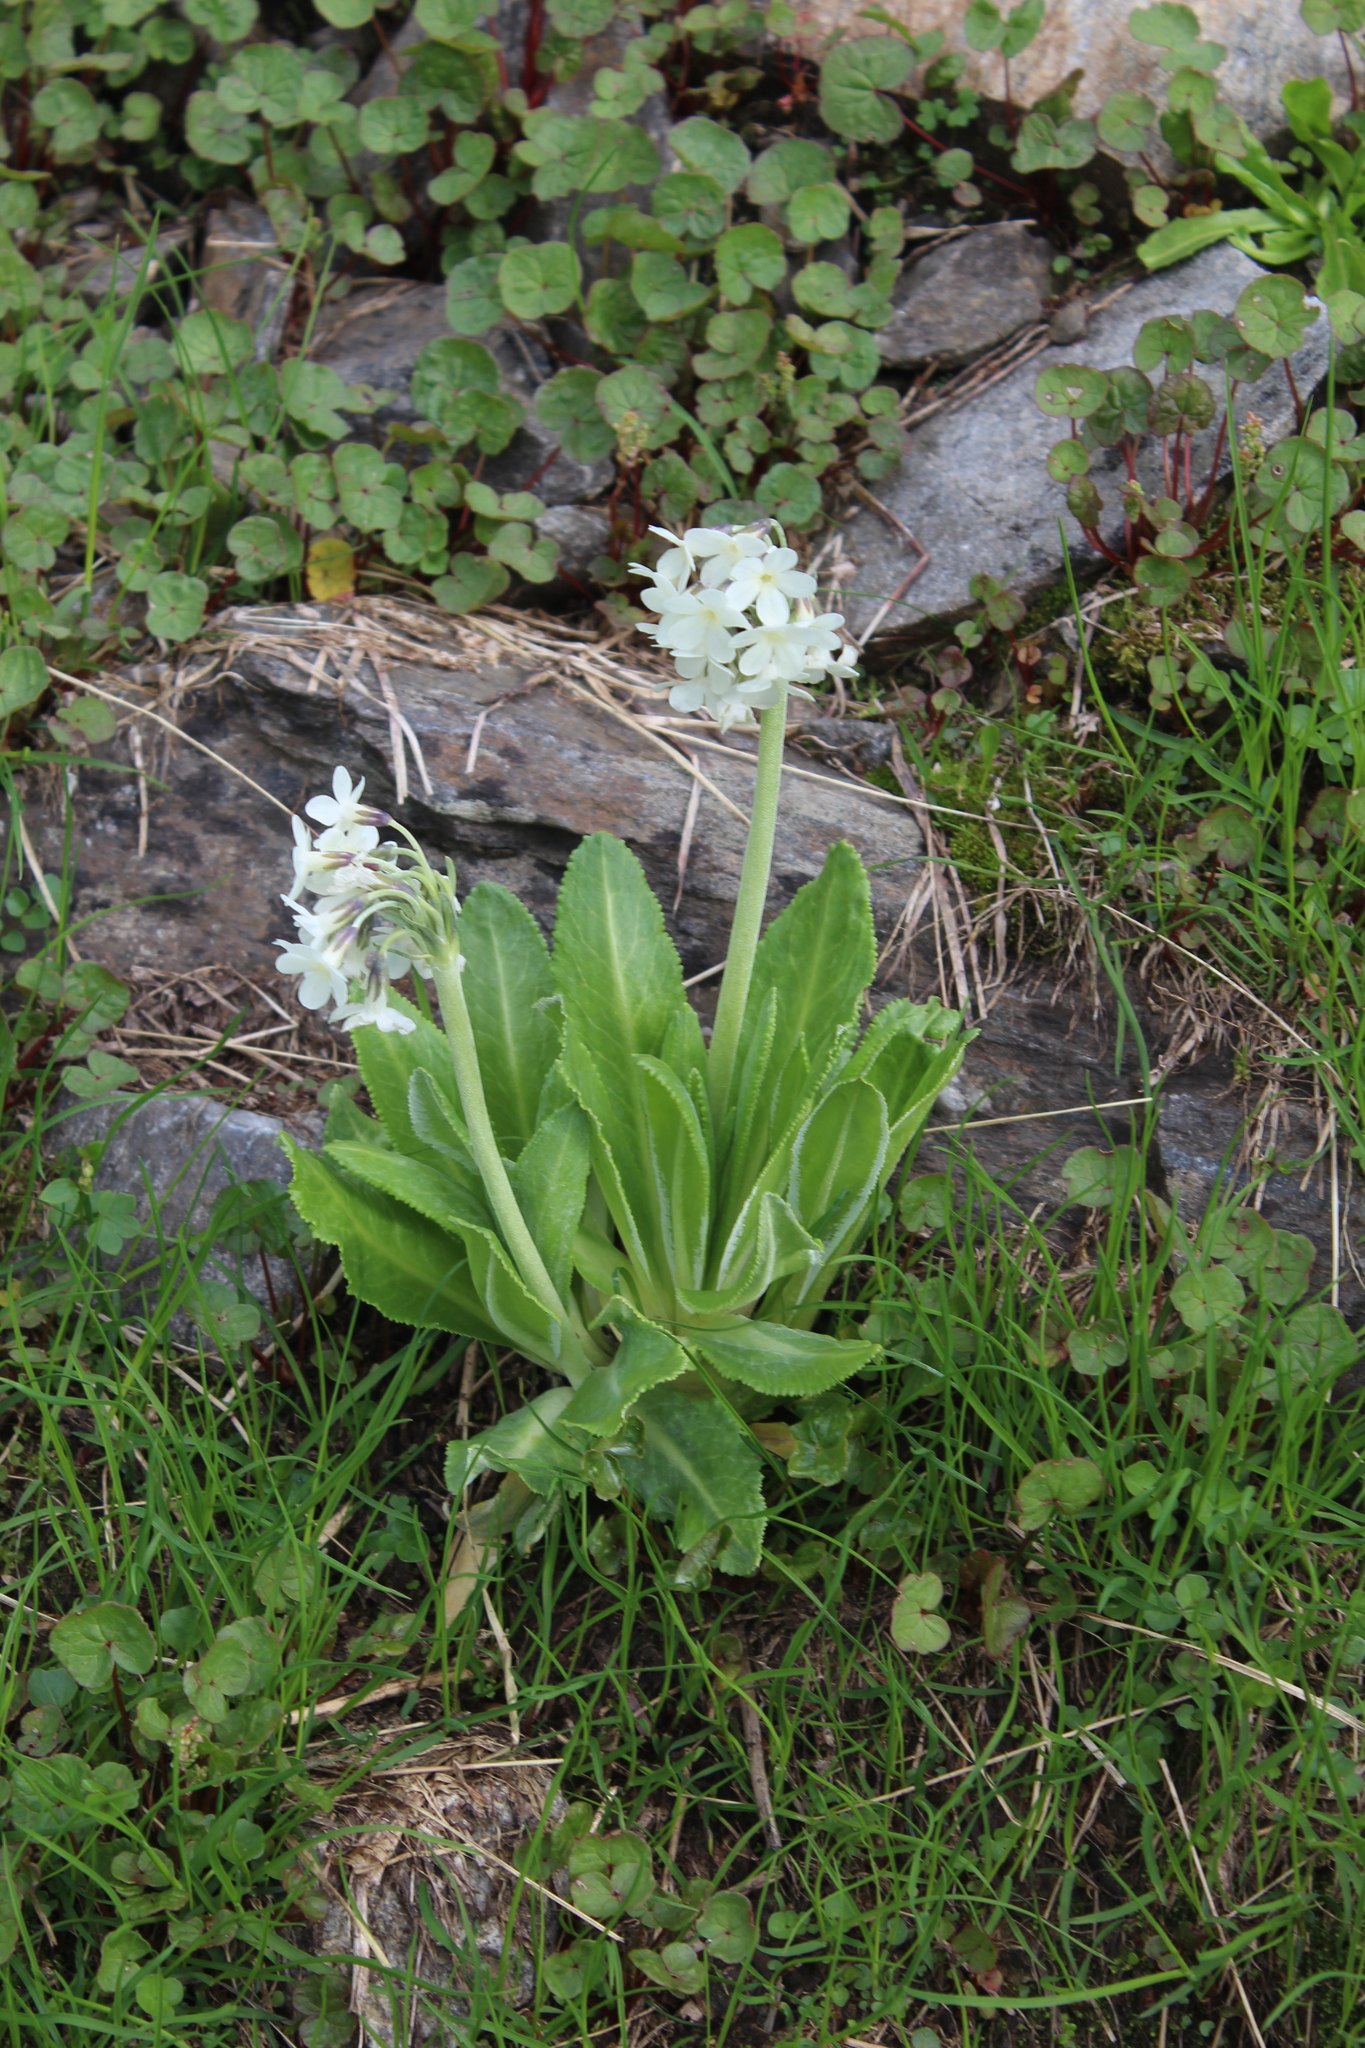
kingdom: Plantae
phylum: Tracheophyta
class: Magnoliopsida
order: Ericales
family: Primulaceae
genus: Primula
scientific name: Primula crassifolia
